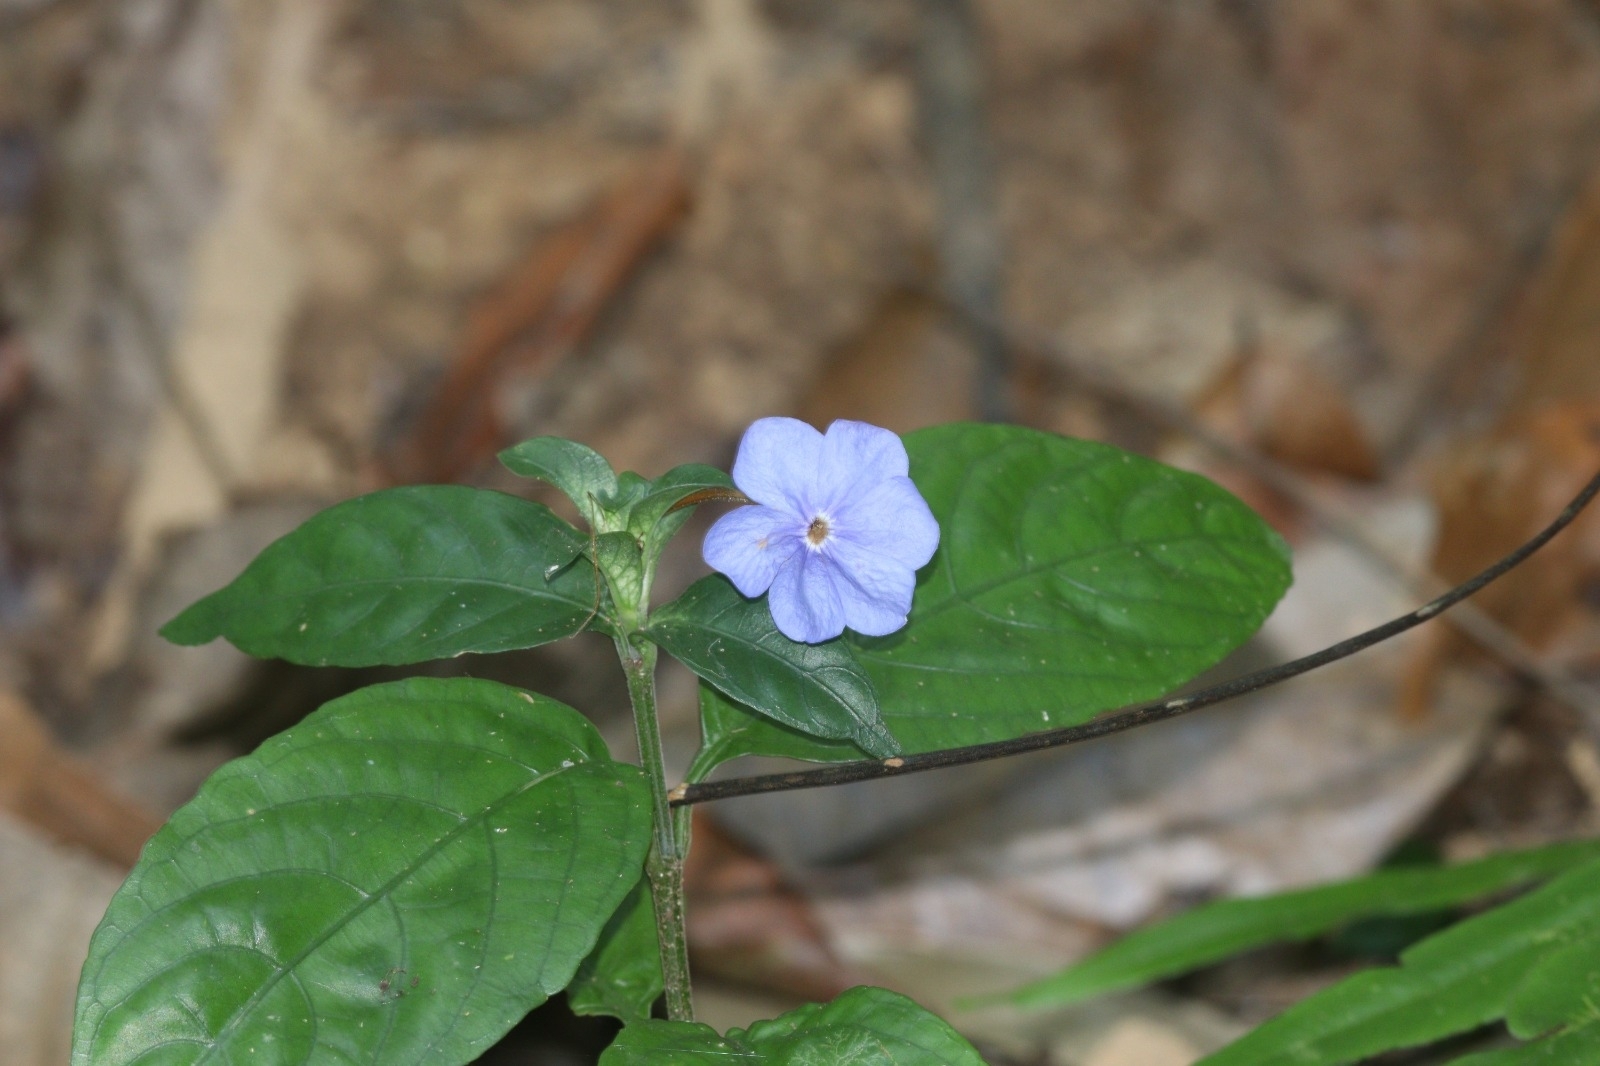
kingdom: Plantae
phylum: Tracheophyta
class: Magnoliopsida
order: Lamiales
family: Acanthaceae
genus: Eranthemum
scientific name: Eranthemum suffruticosum
